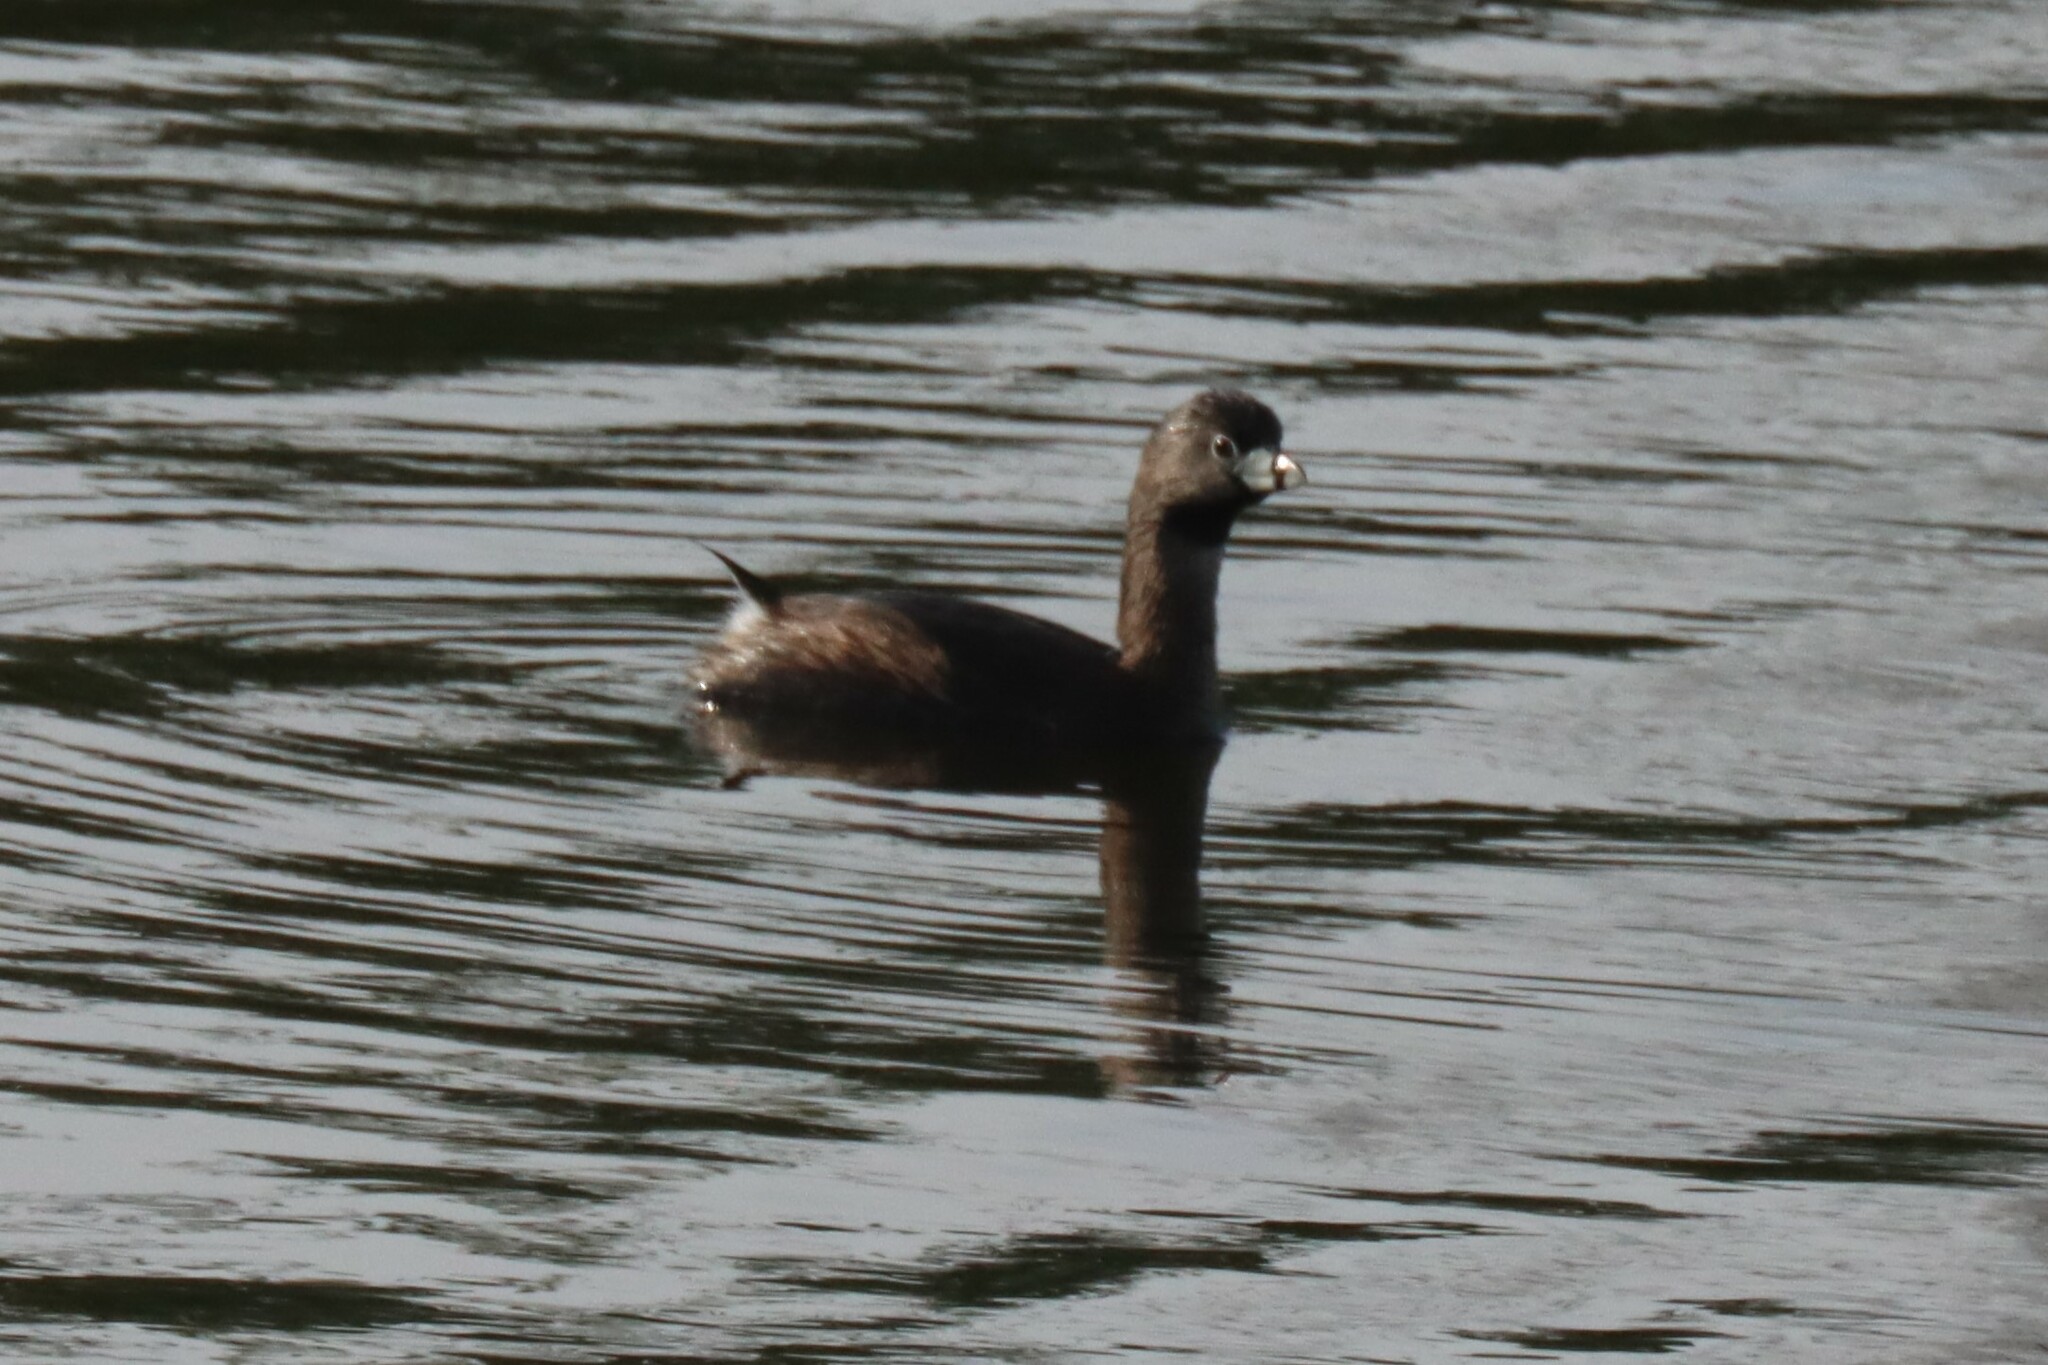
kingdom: Animalia
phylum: Chordata
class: Aves
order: Podicipediformes
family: Podicipedidae
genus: Podilymbus
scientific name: Podilymbus podiceps
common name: Pied-billed grebe
